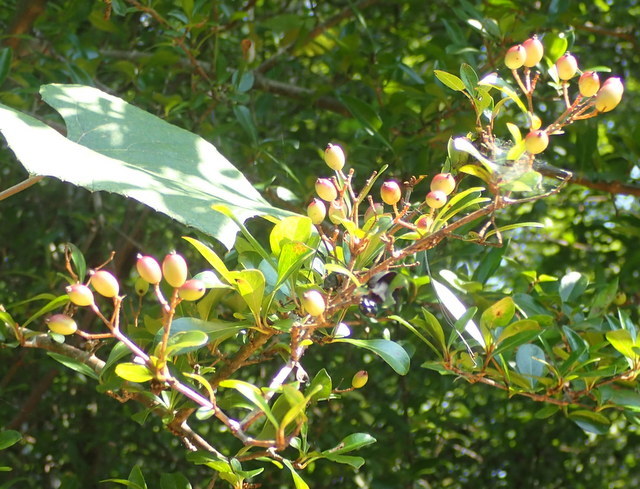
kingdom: Plantae
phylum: Tracheophyta
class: Magnoliopsida
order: Dipsacales
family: Viburnaceae
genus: Viburnum
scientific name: Viburnum obovatum
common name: Walter's viburnum
